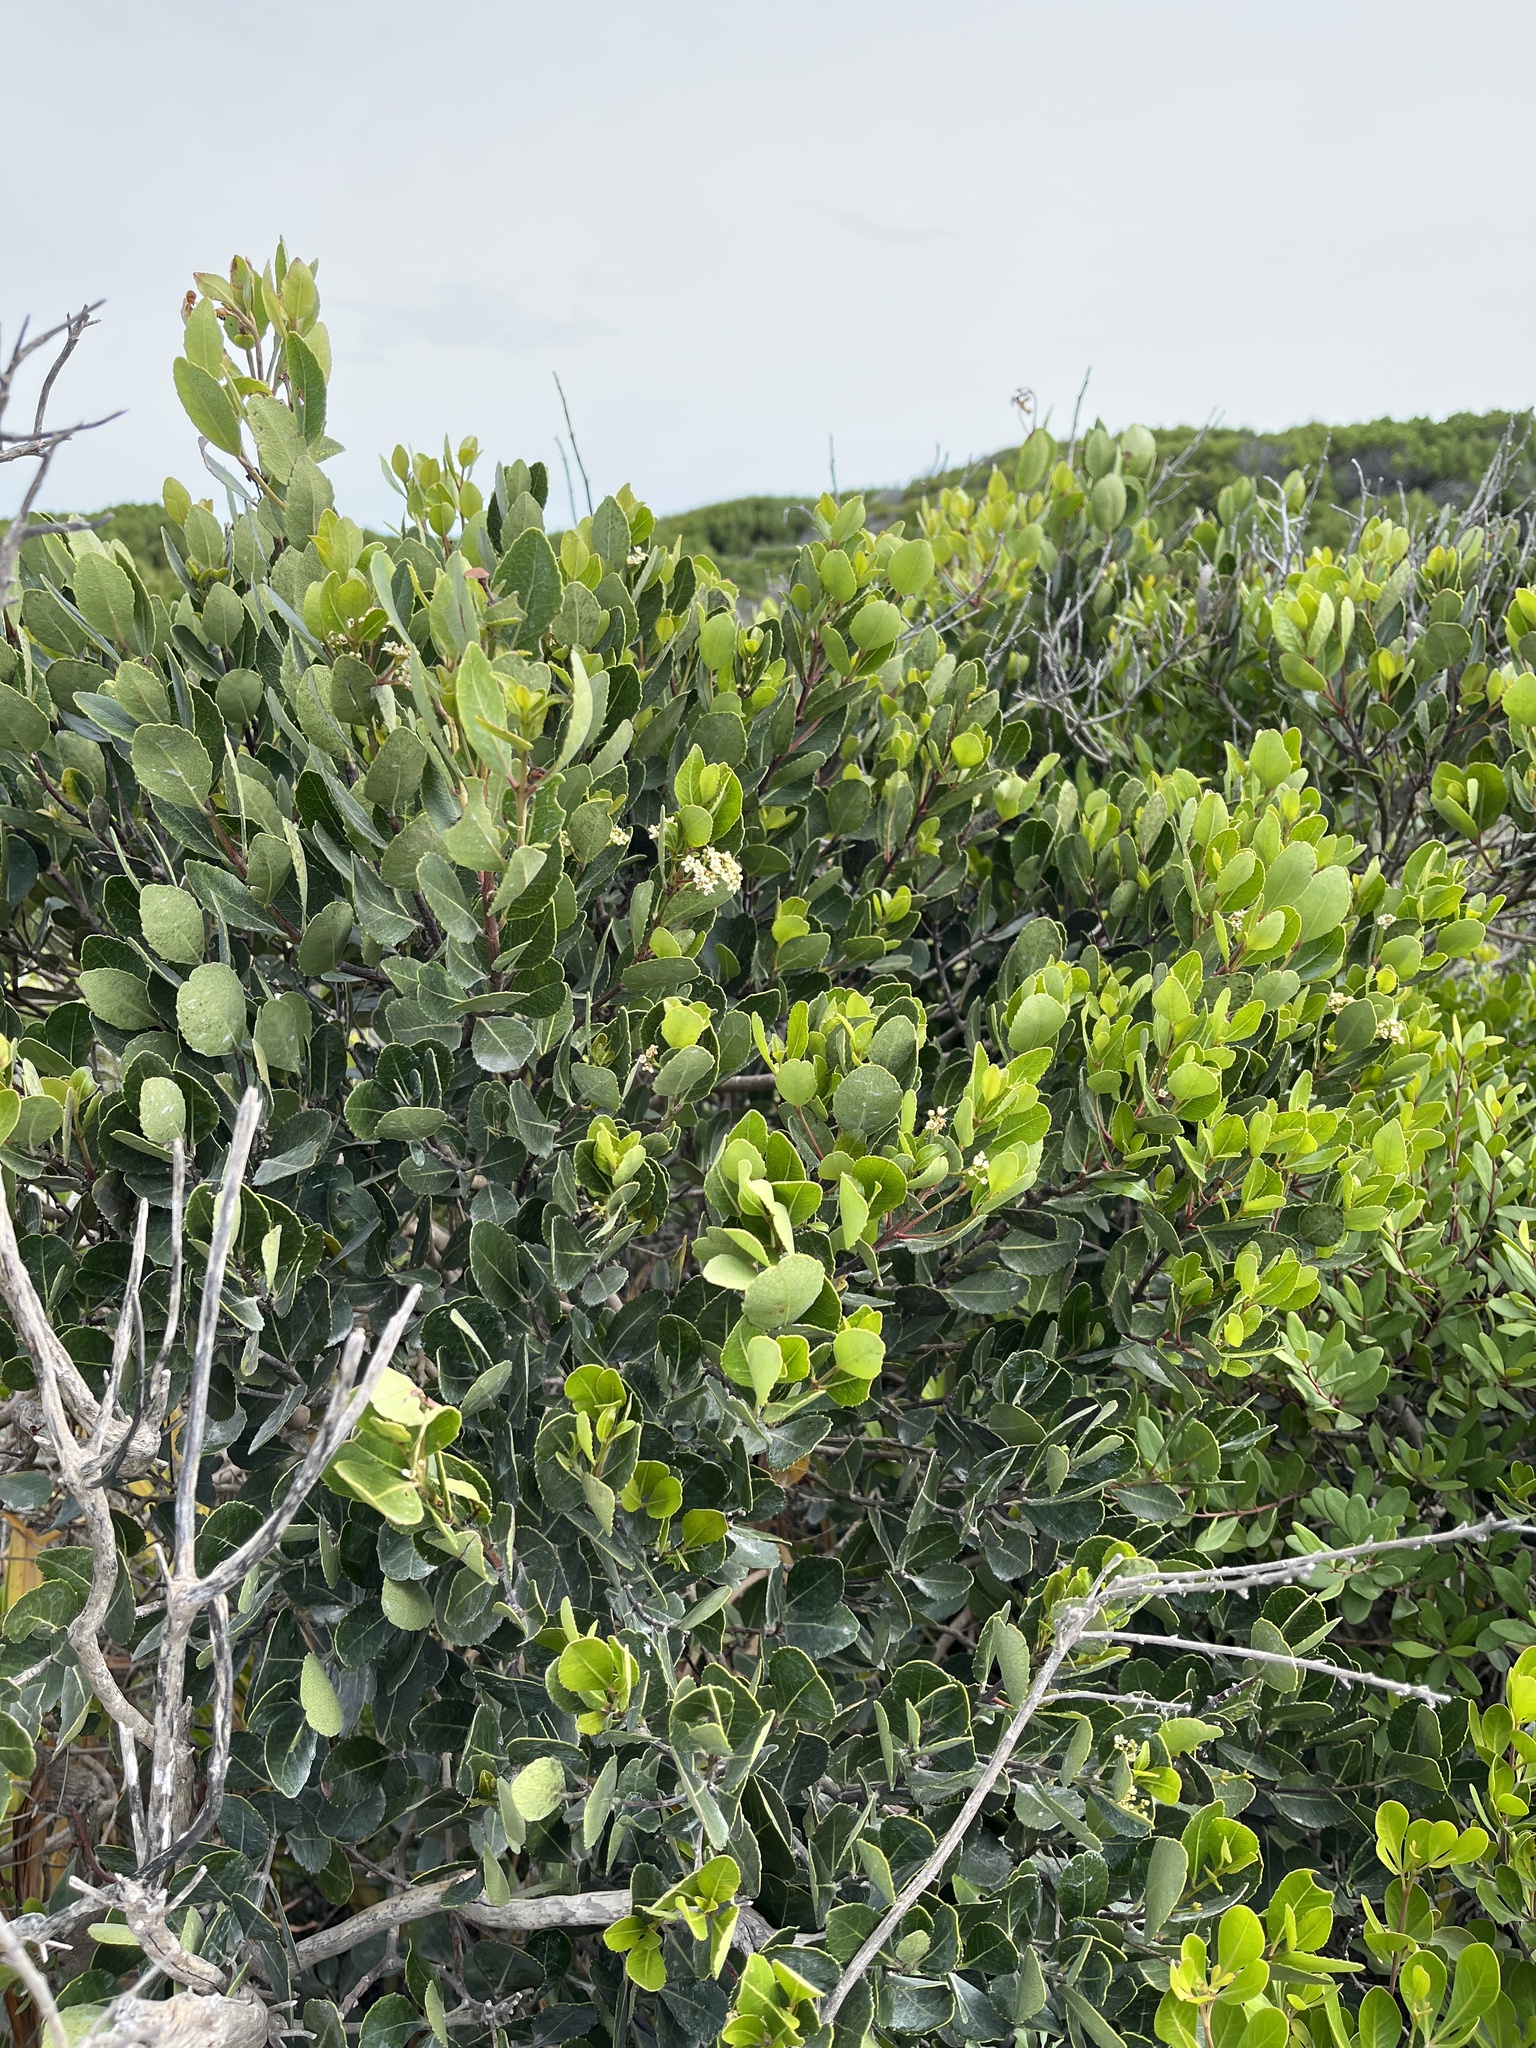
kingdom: Plantae
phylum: Tracheophyta
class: Magnoliopsida
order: Celastrales
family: Celastraceae
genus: Cassine
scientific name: Cassine peragua
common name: Cape saffron
